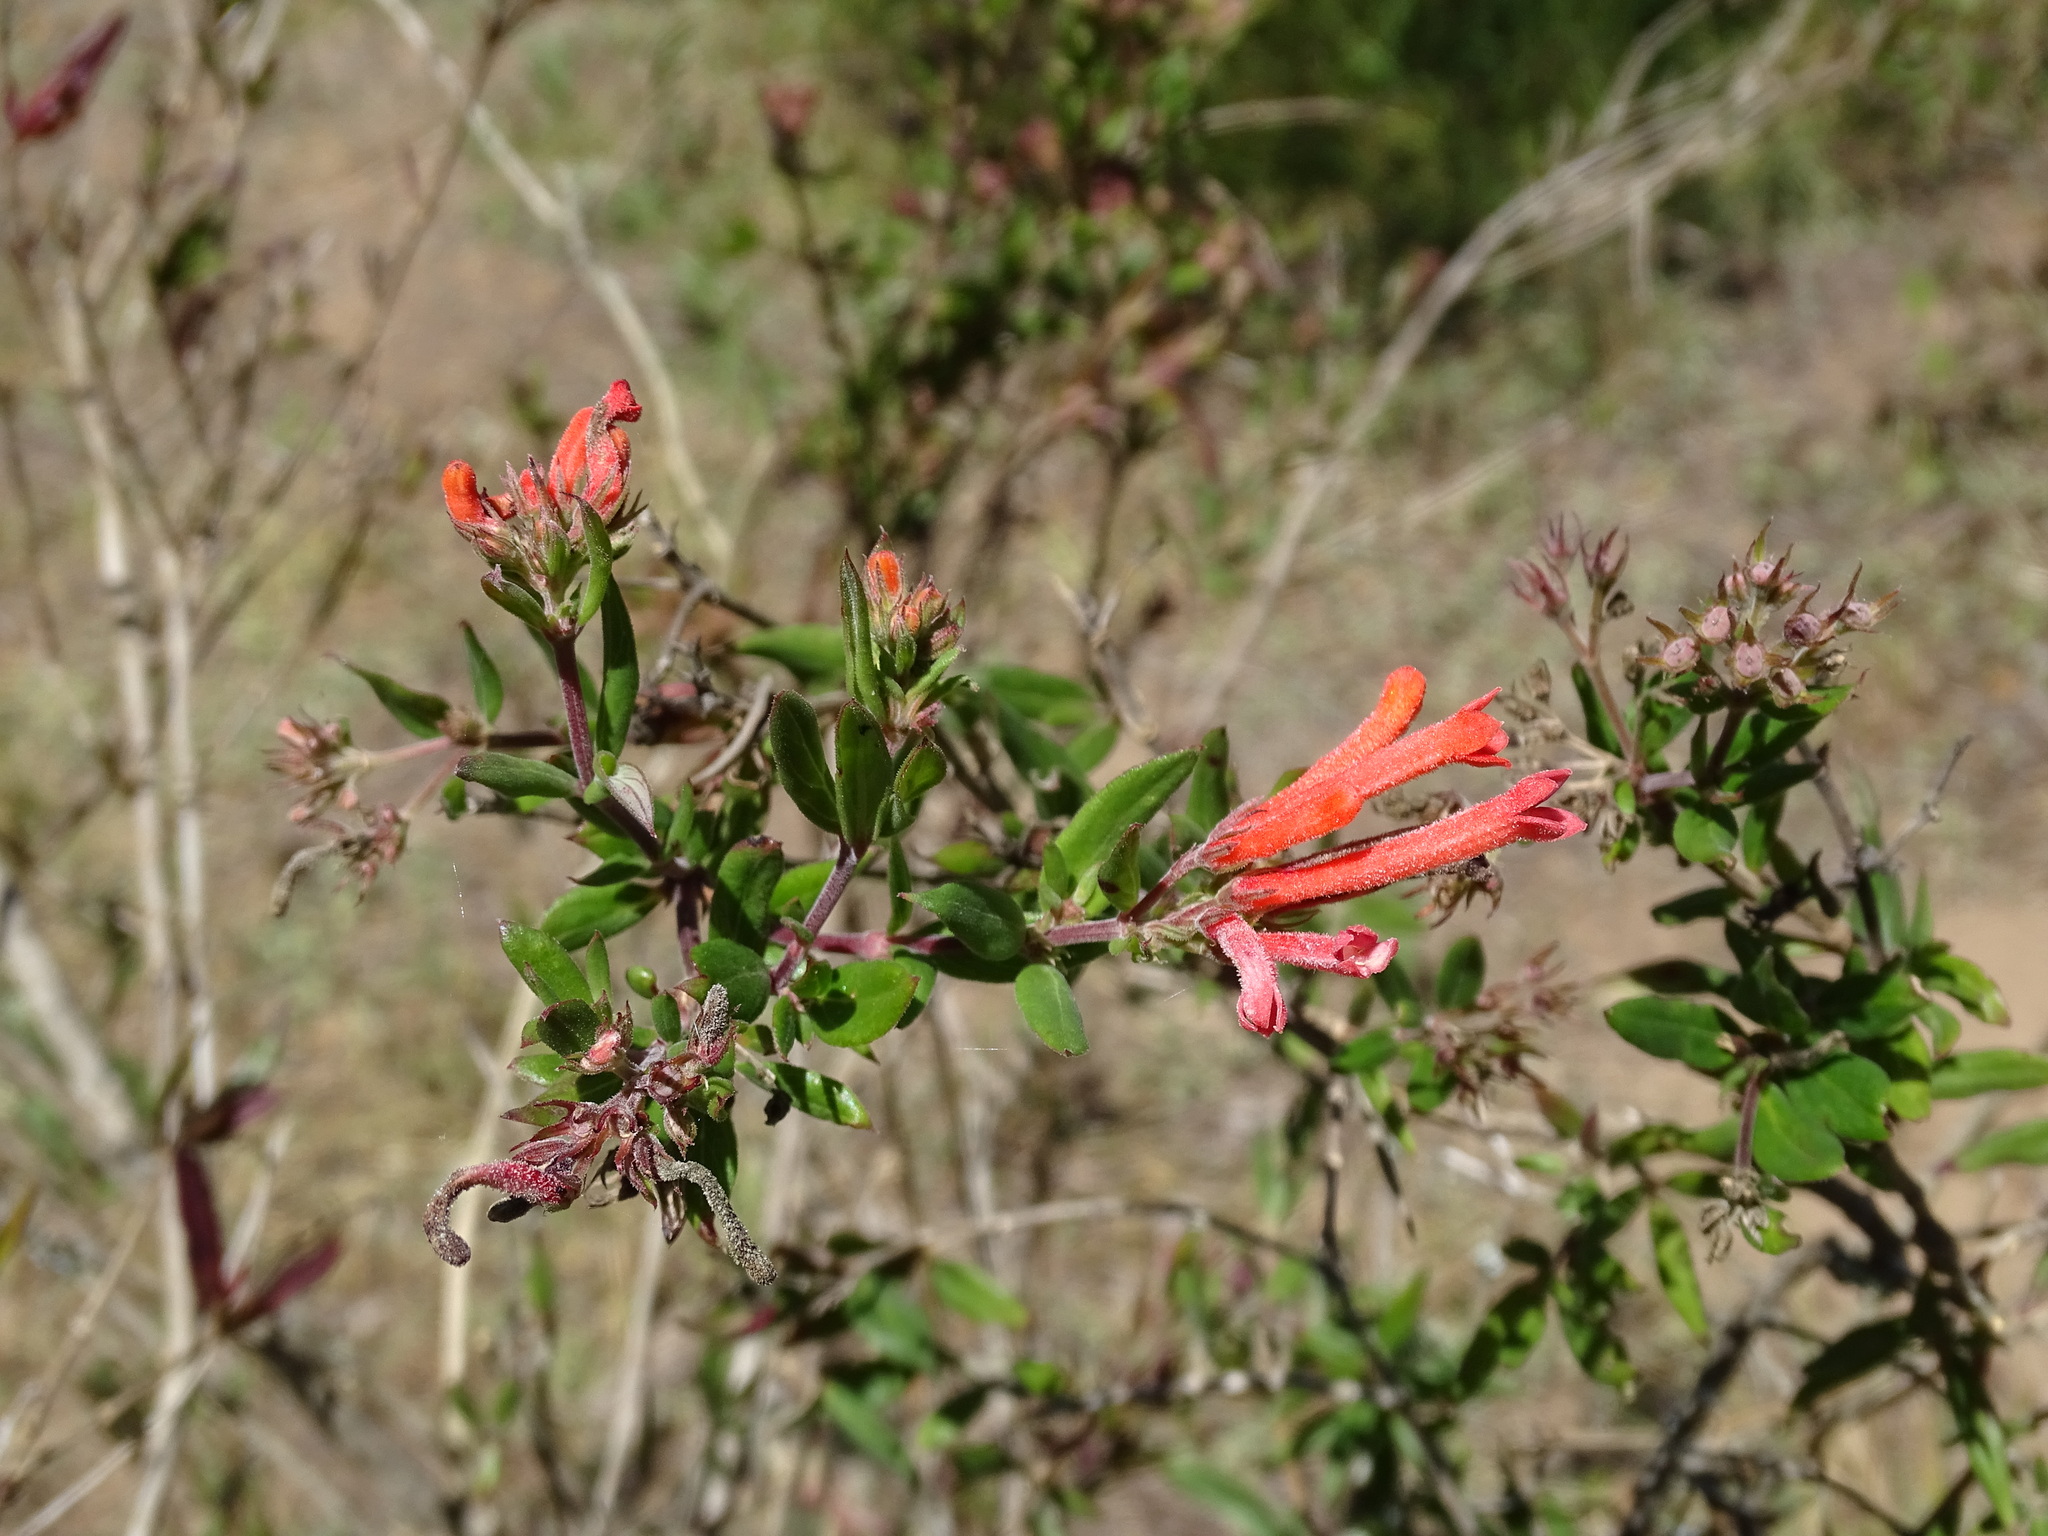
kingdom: Plantae
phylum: Tracheophyta
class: Magnoliopsida
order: Gentianales
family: Rubiaceae
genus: Bouvardia
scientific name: Bouvardia ternifolia
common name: Scarlet bouvardia
